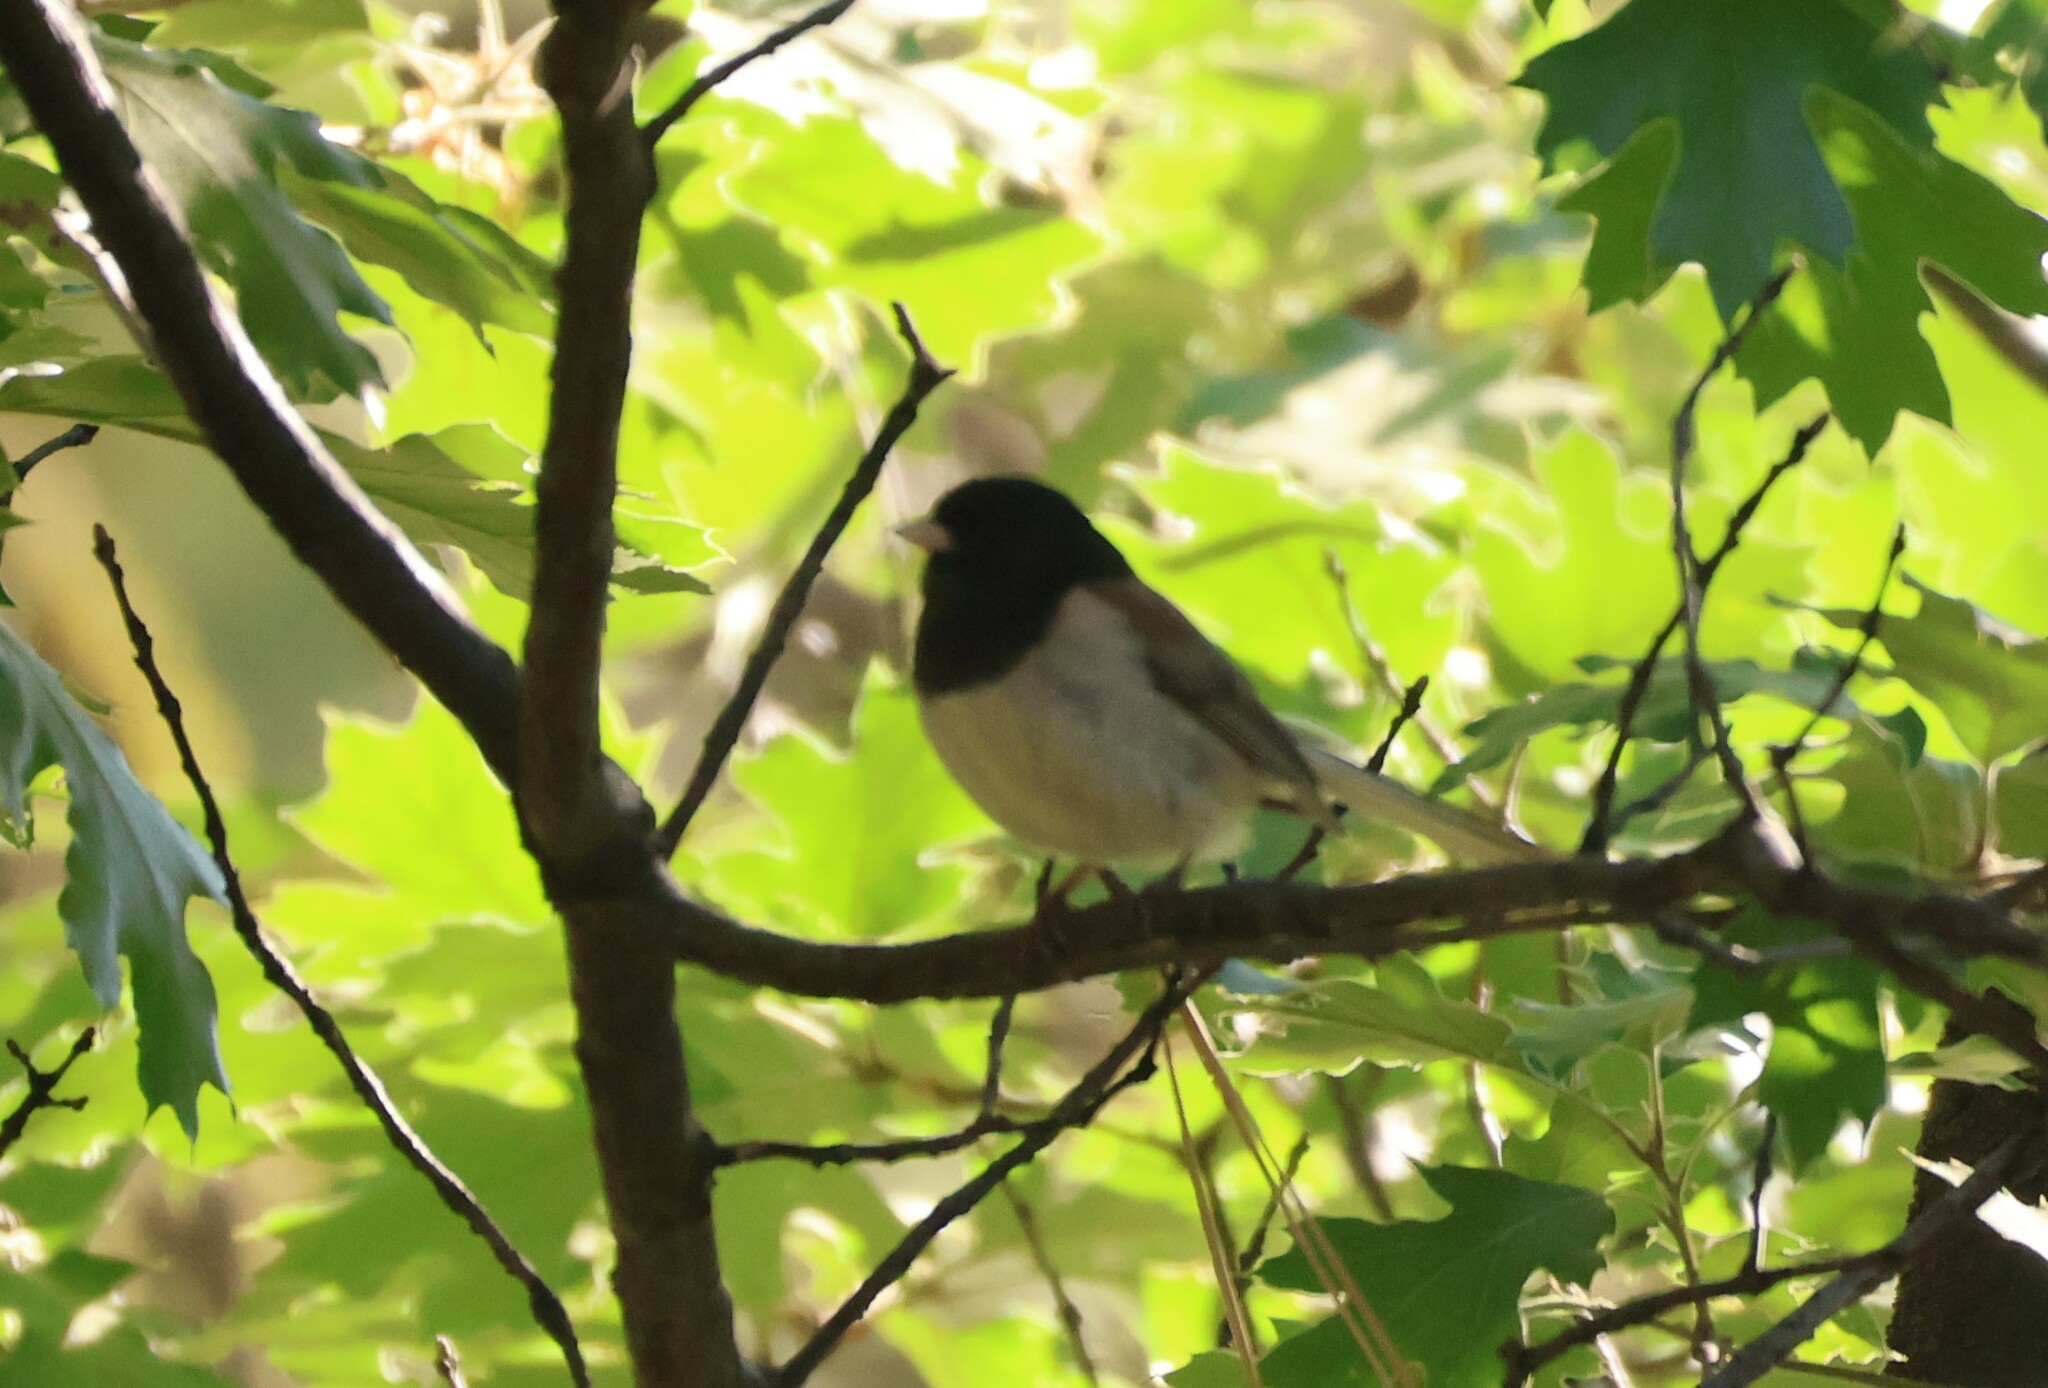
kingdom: Animalia
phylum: Chordata
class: Aves
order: Passeriformes
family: Passerellidae
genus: Junco
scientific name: Junco hyemalis
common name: Dark-eyed junco
